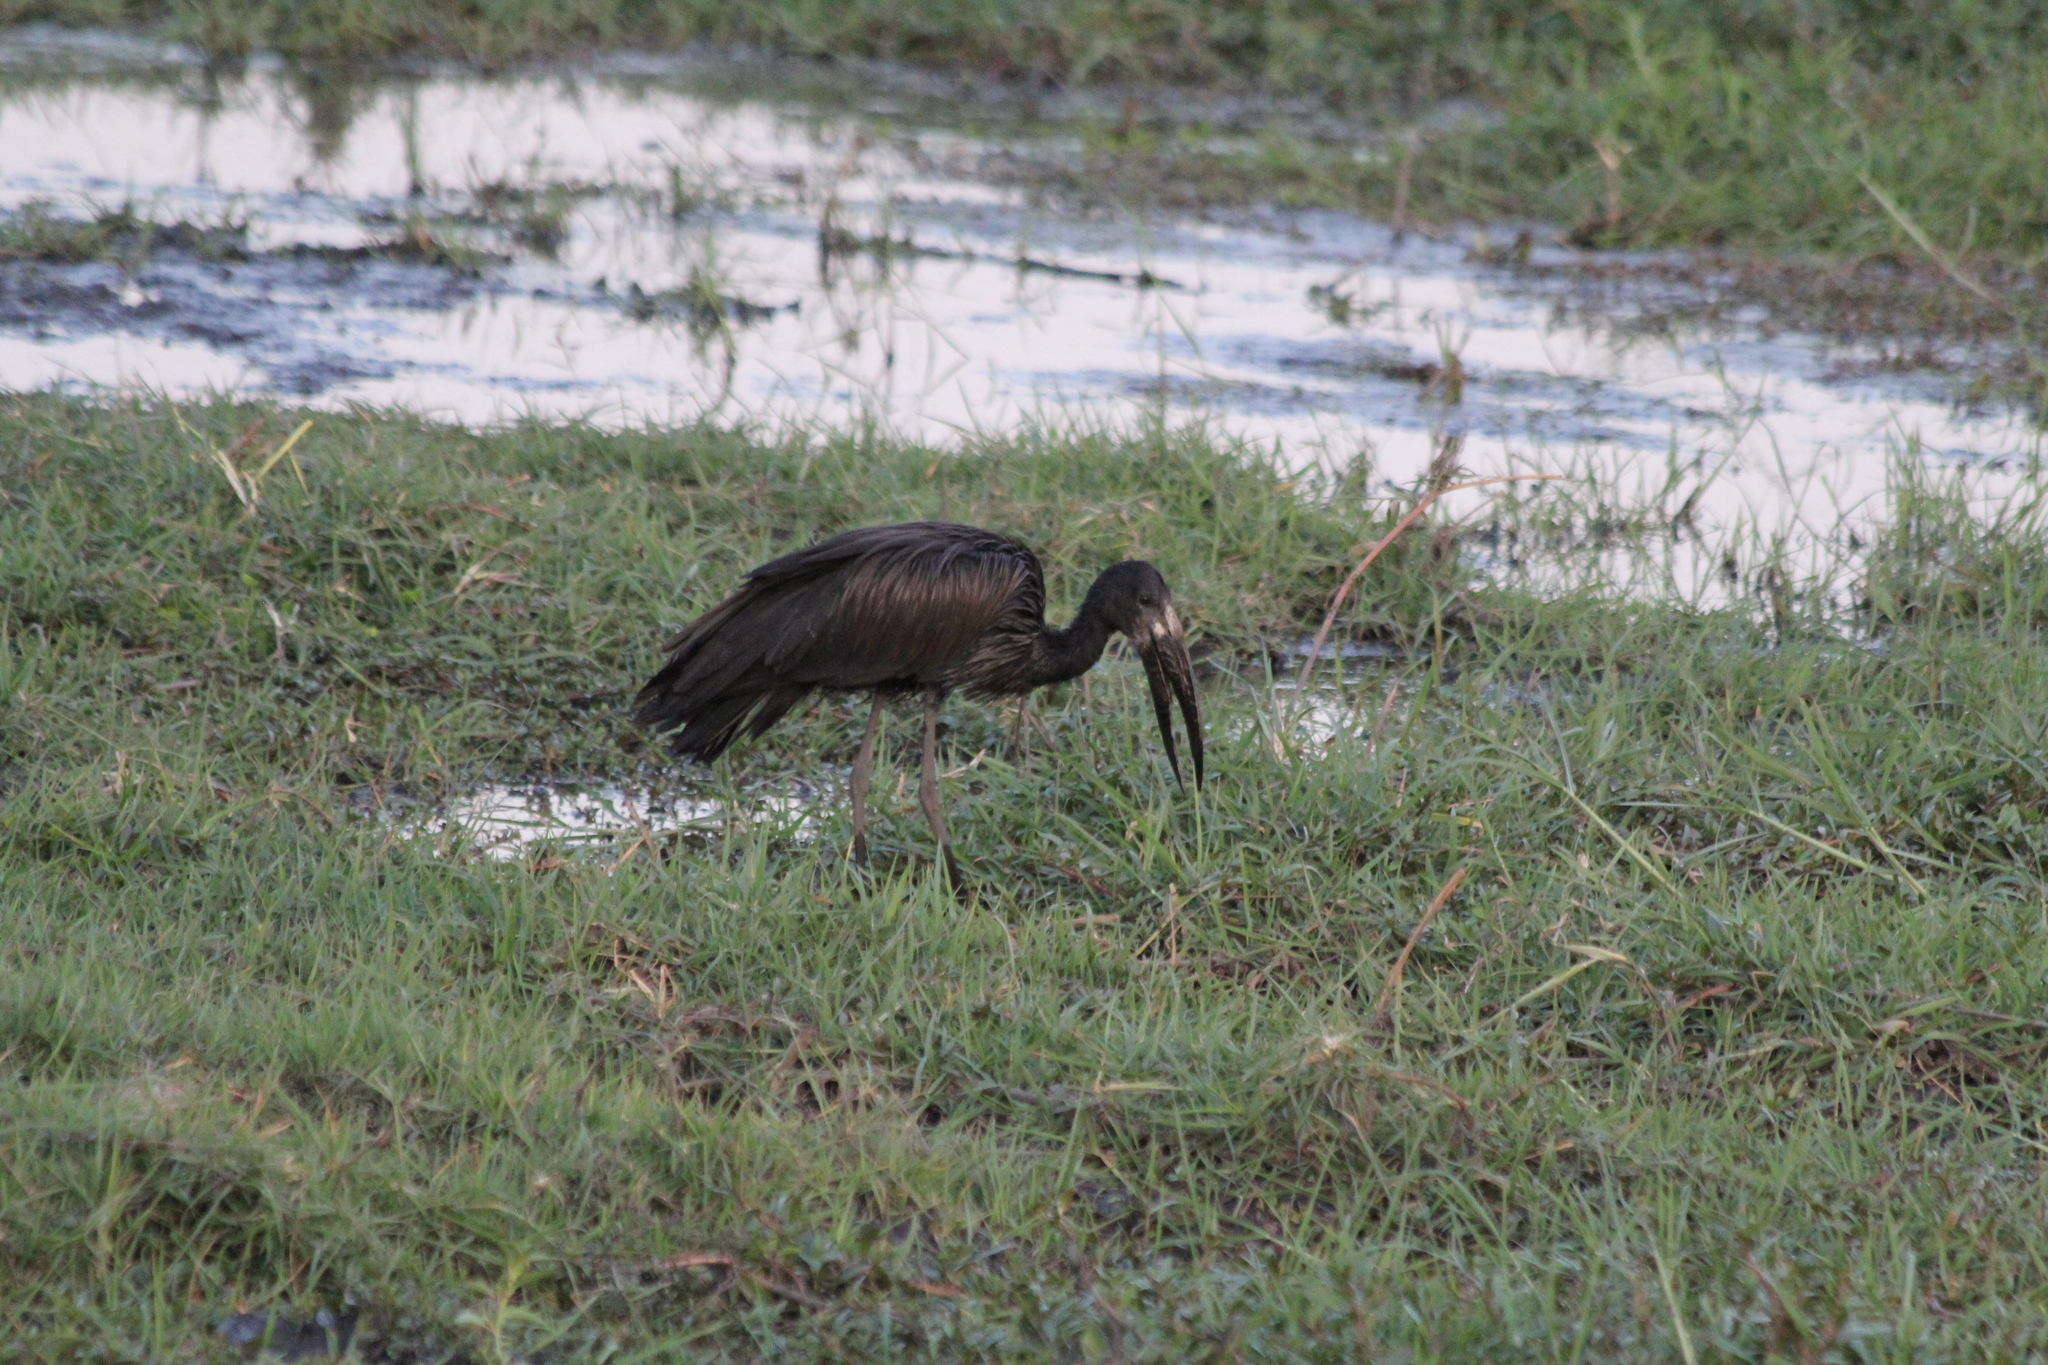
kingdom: Animalia
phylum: Chordata
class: Aves
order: Ciconiiformes
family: Ciconiidae
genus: Anastomus
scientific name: Anastomus lamelligerus
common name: African openbill
